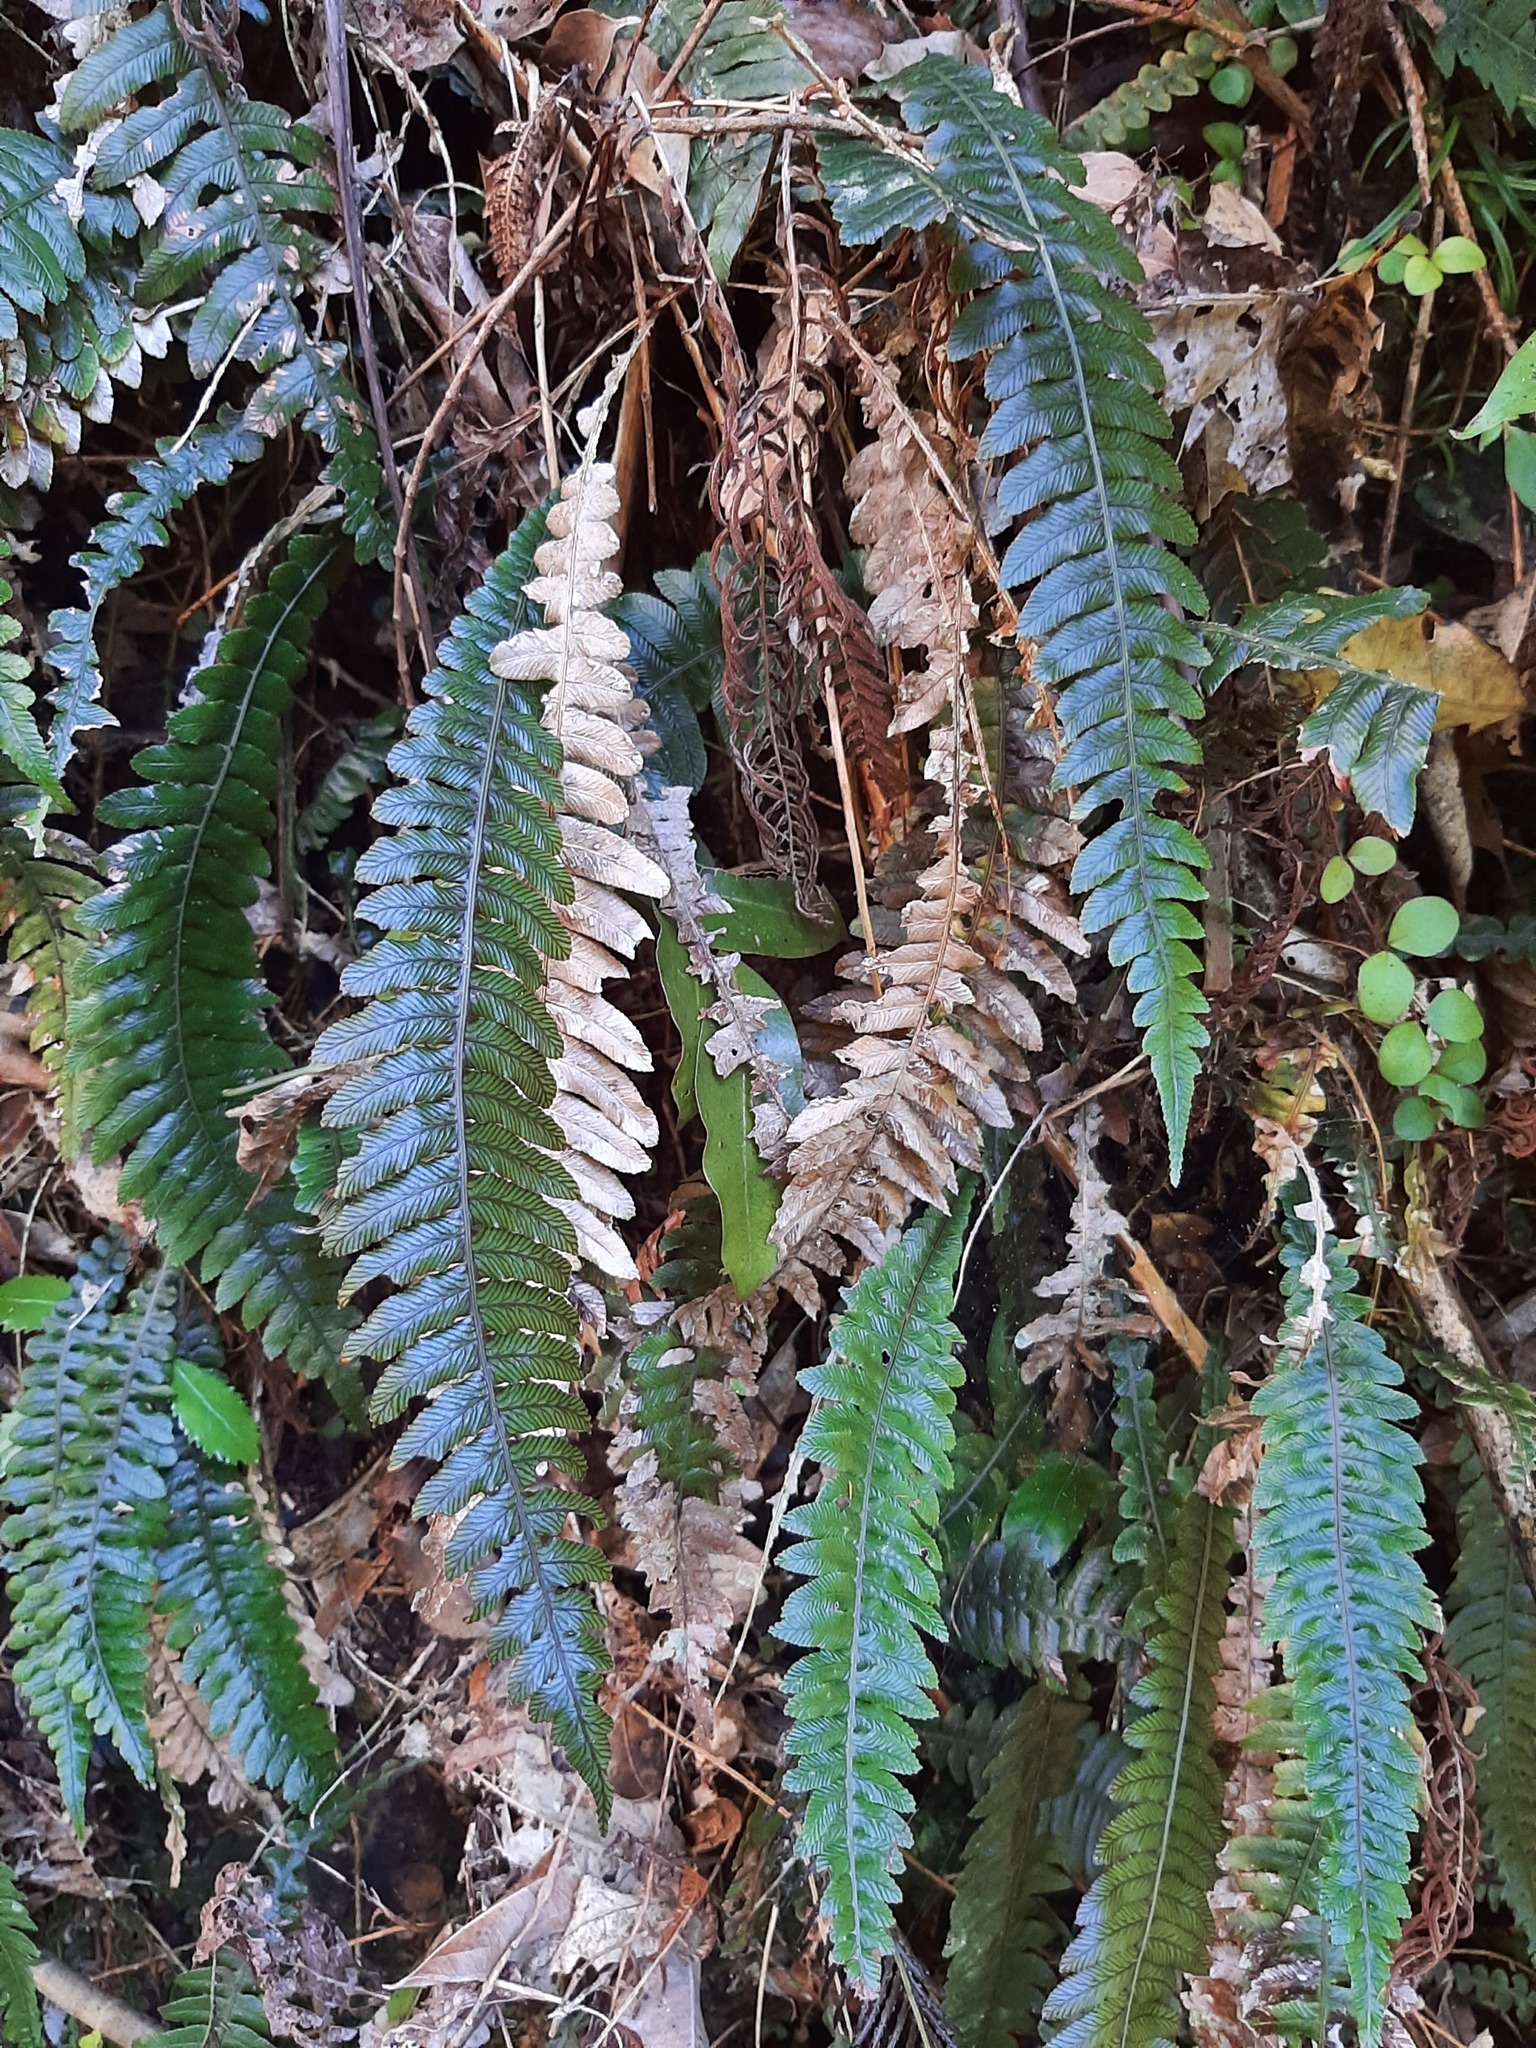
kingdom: Plantae
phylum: Tracheophyta
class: Polypodiopsida
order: Polypodiales
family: Blechnaceae
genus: Austroblechnum
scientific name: Austroblechnum lanceolatum
